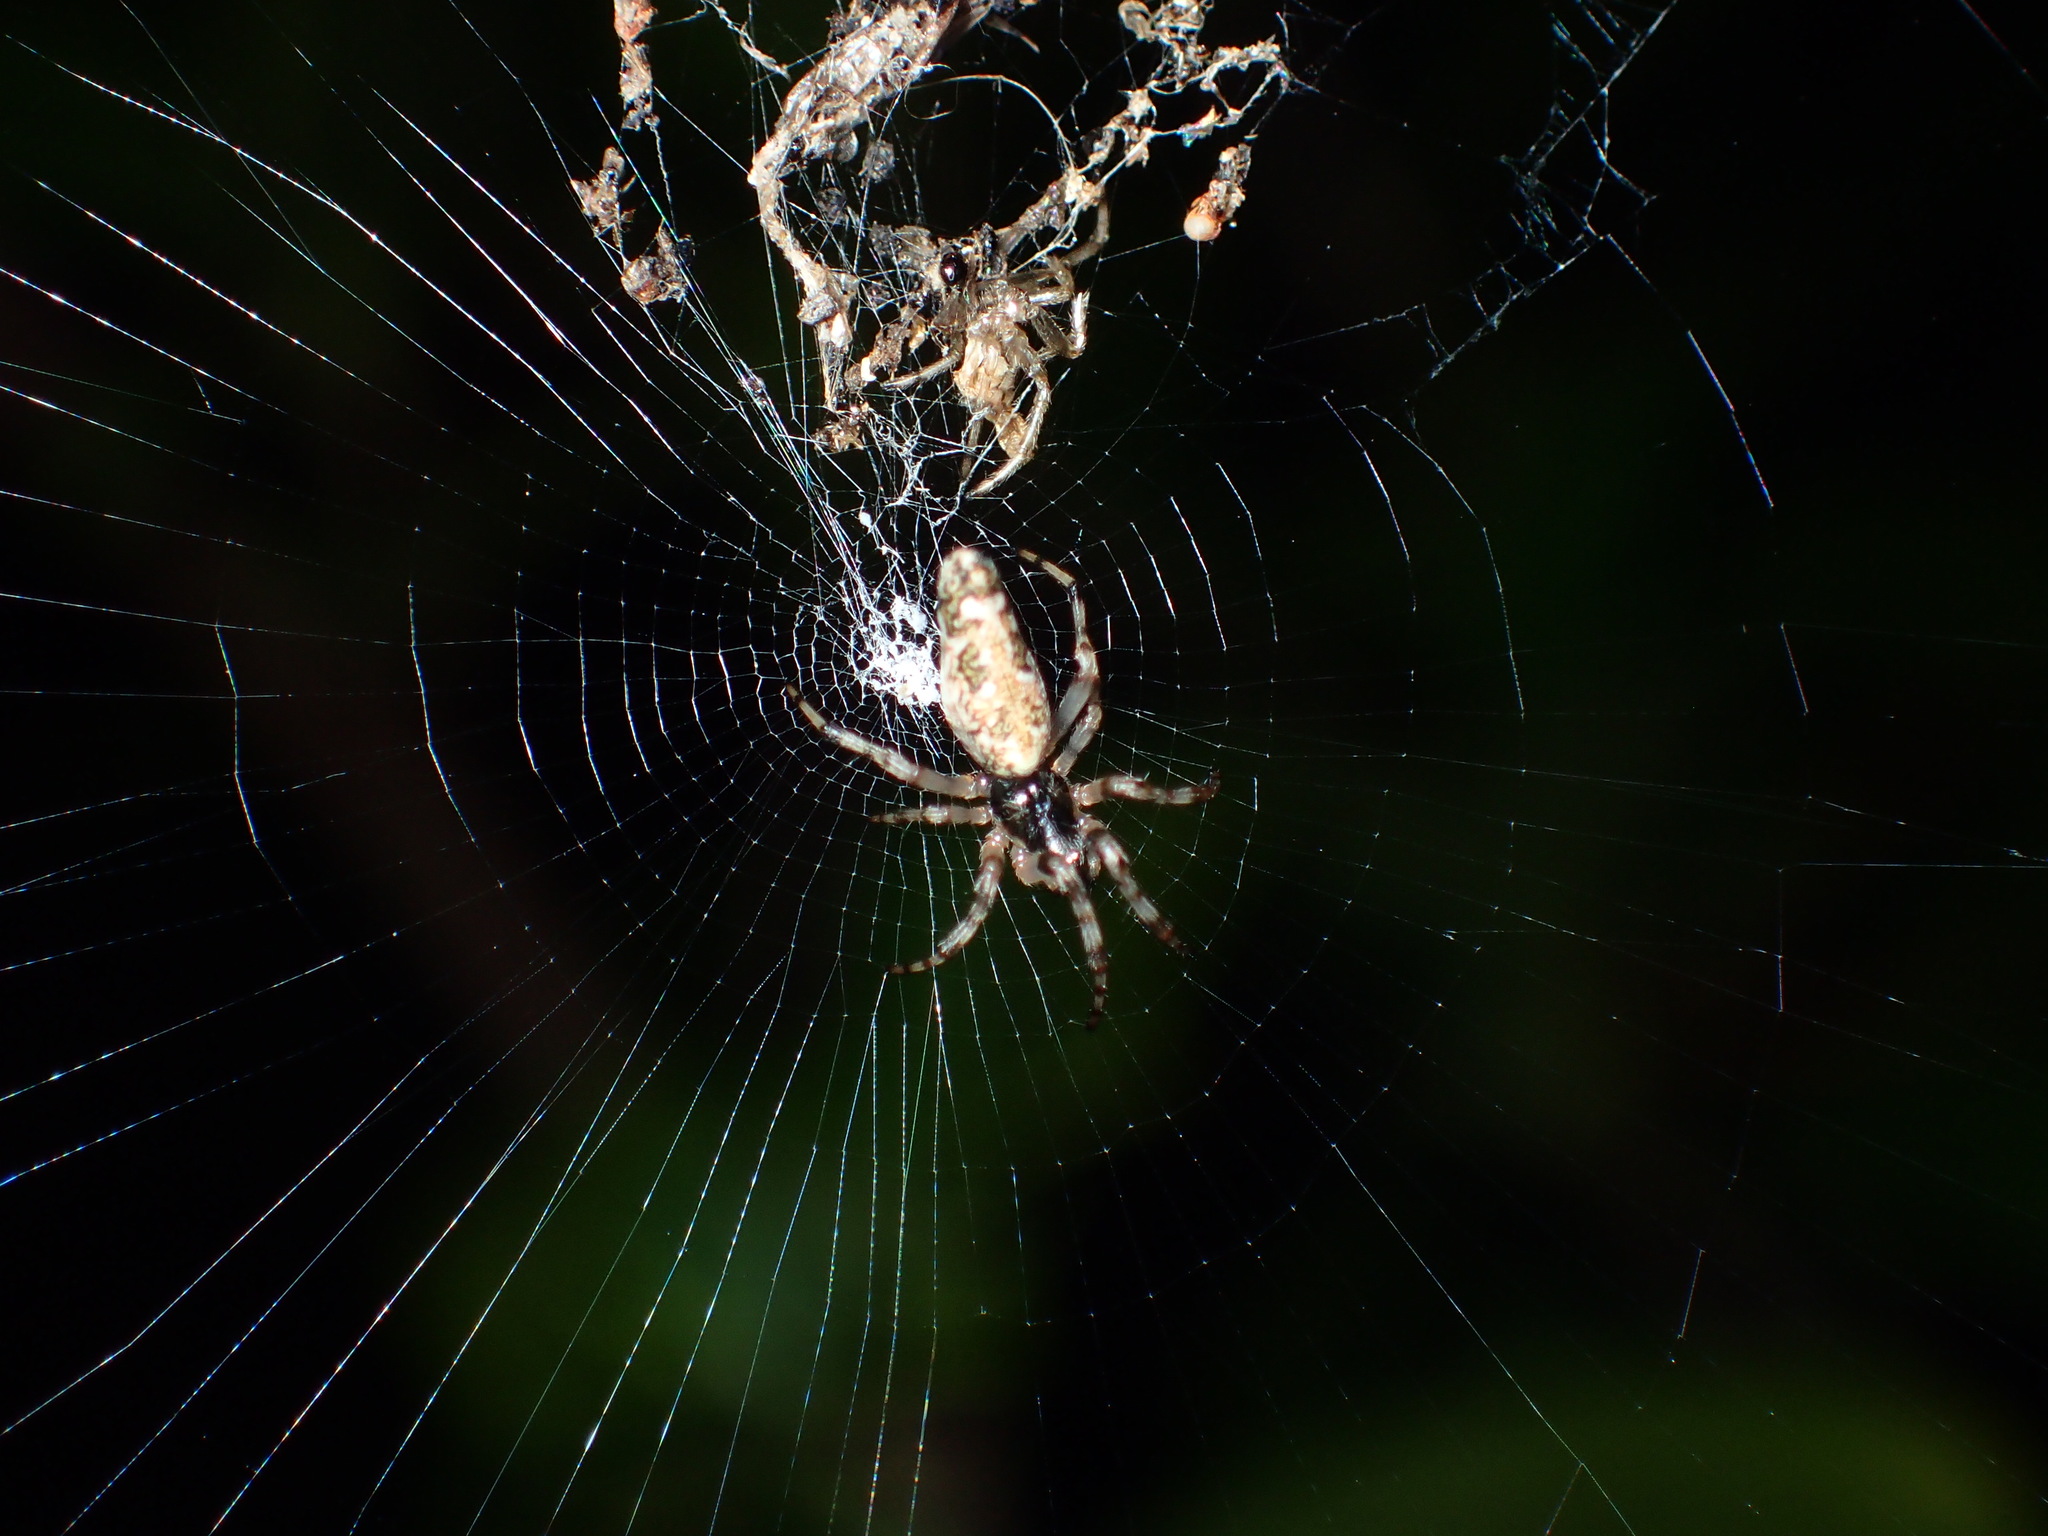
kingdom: Animalia
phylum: Arthropoda
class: Arachnida
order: Araneae
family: Araneidae
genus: Cyclosa
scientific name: Cyclosa caroli
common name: Orb weavers
